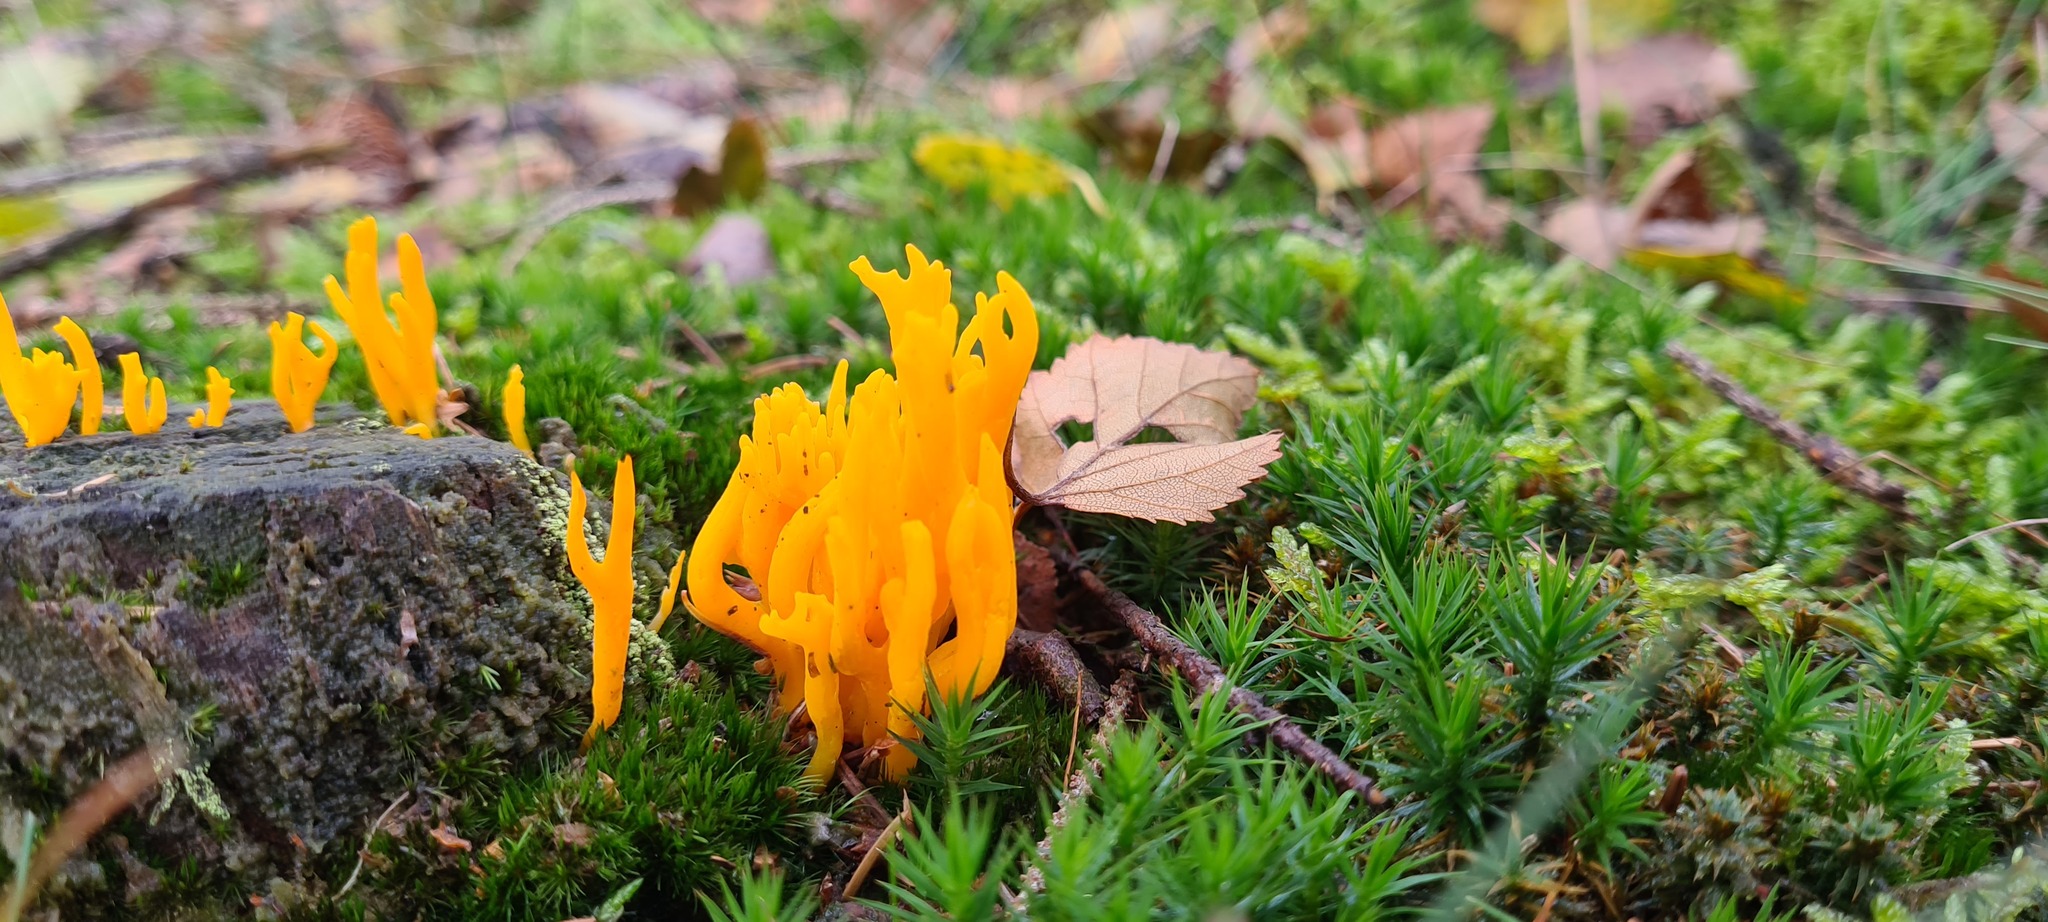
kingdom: Fungi
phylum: Basidiomycota
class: Dacrymycetes
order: Dacrymycetales
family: Dacrymycetaceae
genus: Calocera
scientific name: Calocera viscosa
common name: Yellow stagshorn
